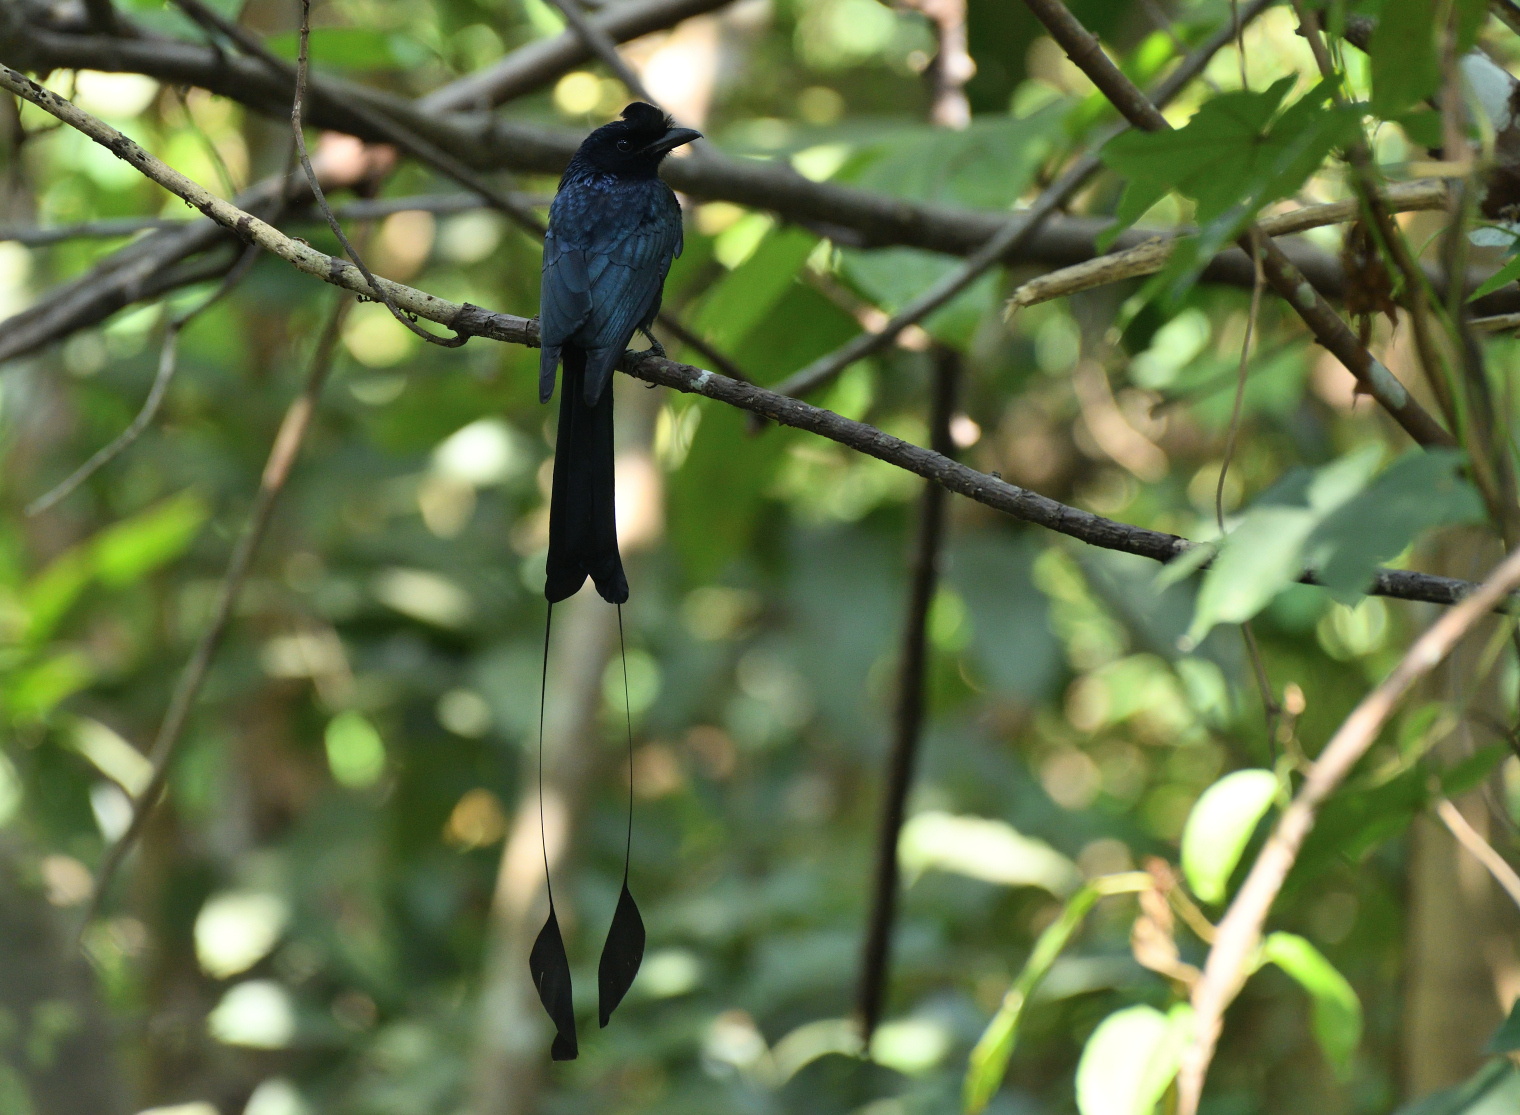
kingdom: Animalia
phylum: Chordata
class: Aves
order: Passeriformes
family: Dicruridae
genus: Dicrurus
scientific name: Dicrurus paradiseus
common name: Greater racket-tailed drongo
